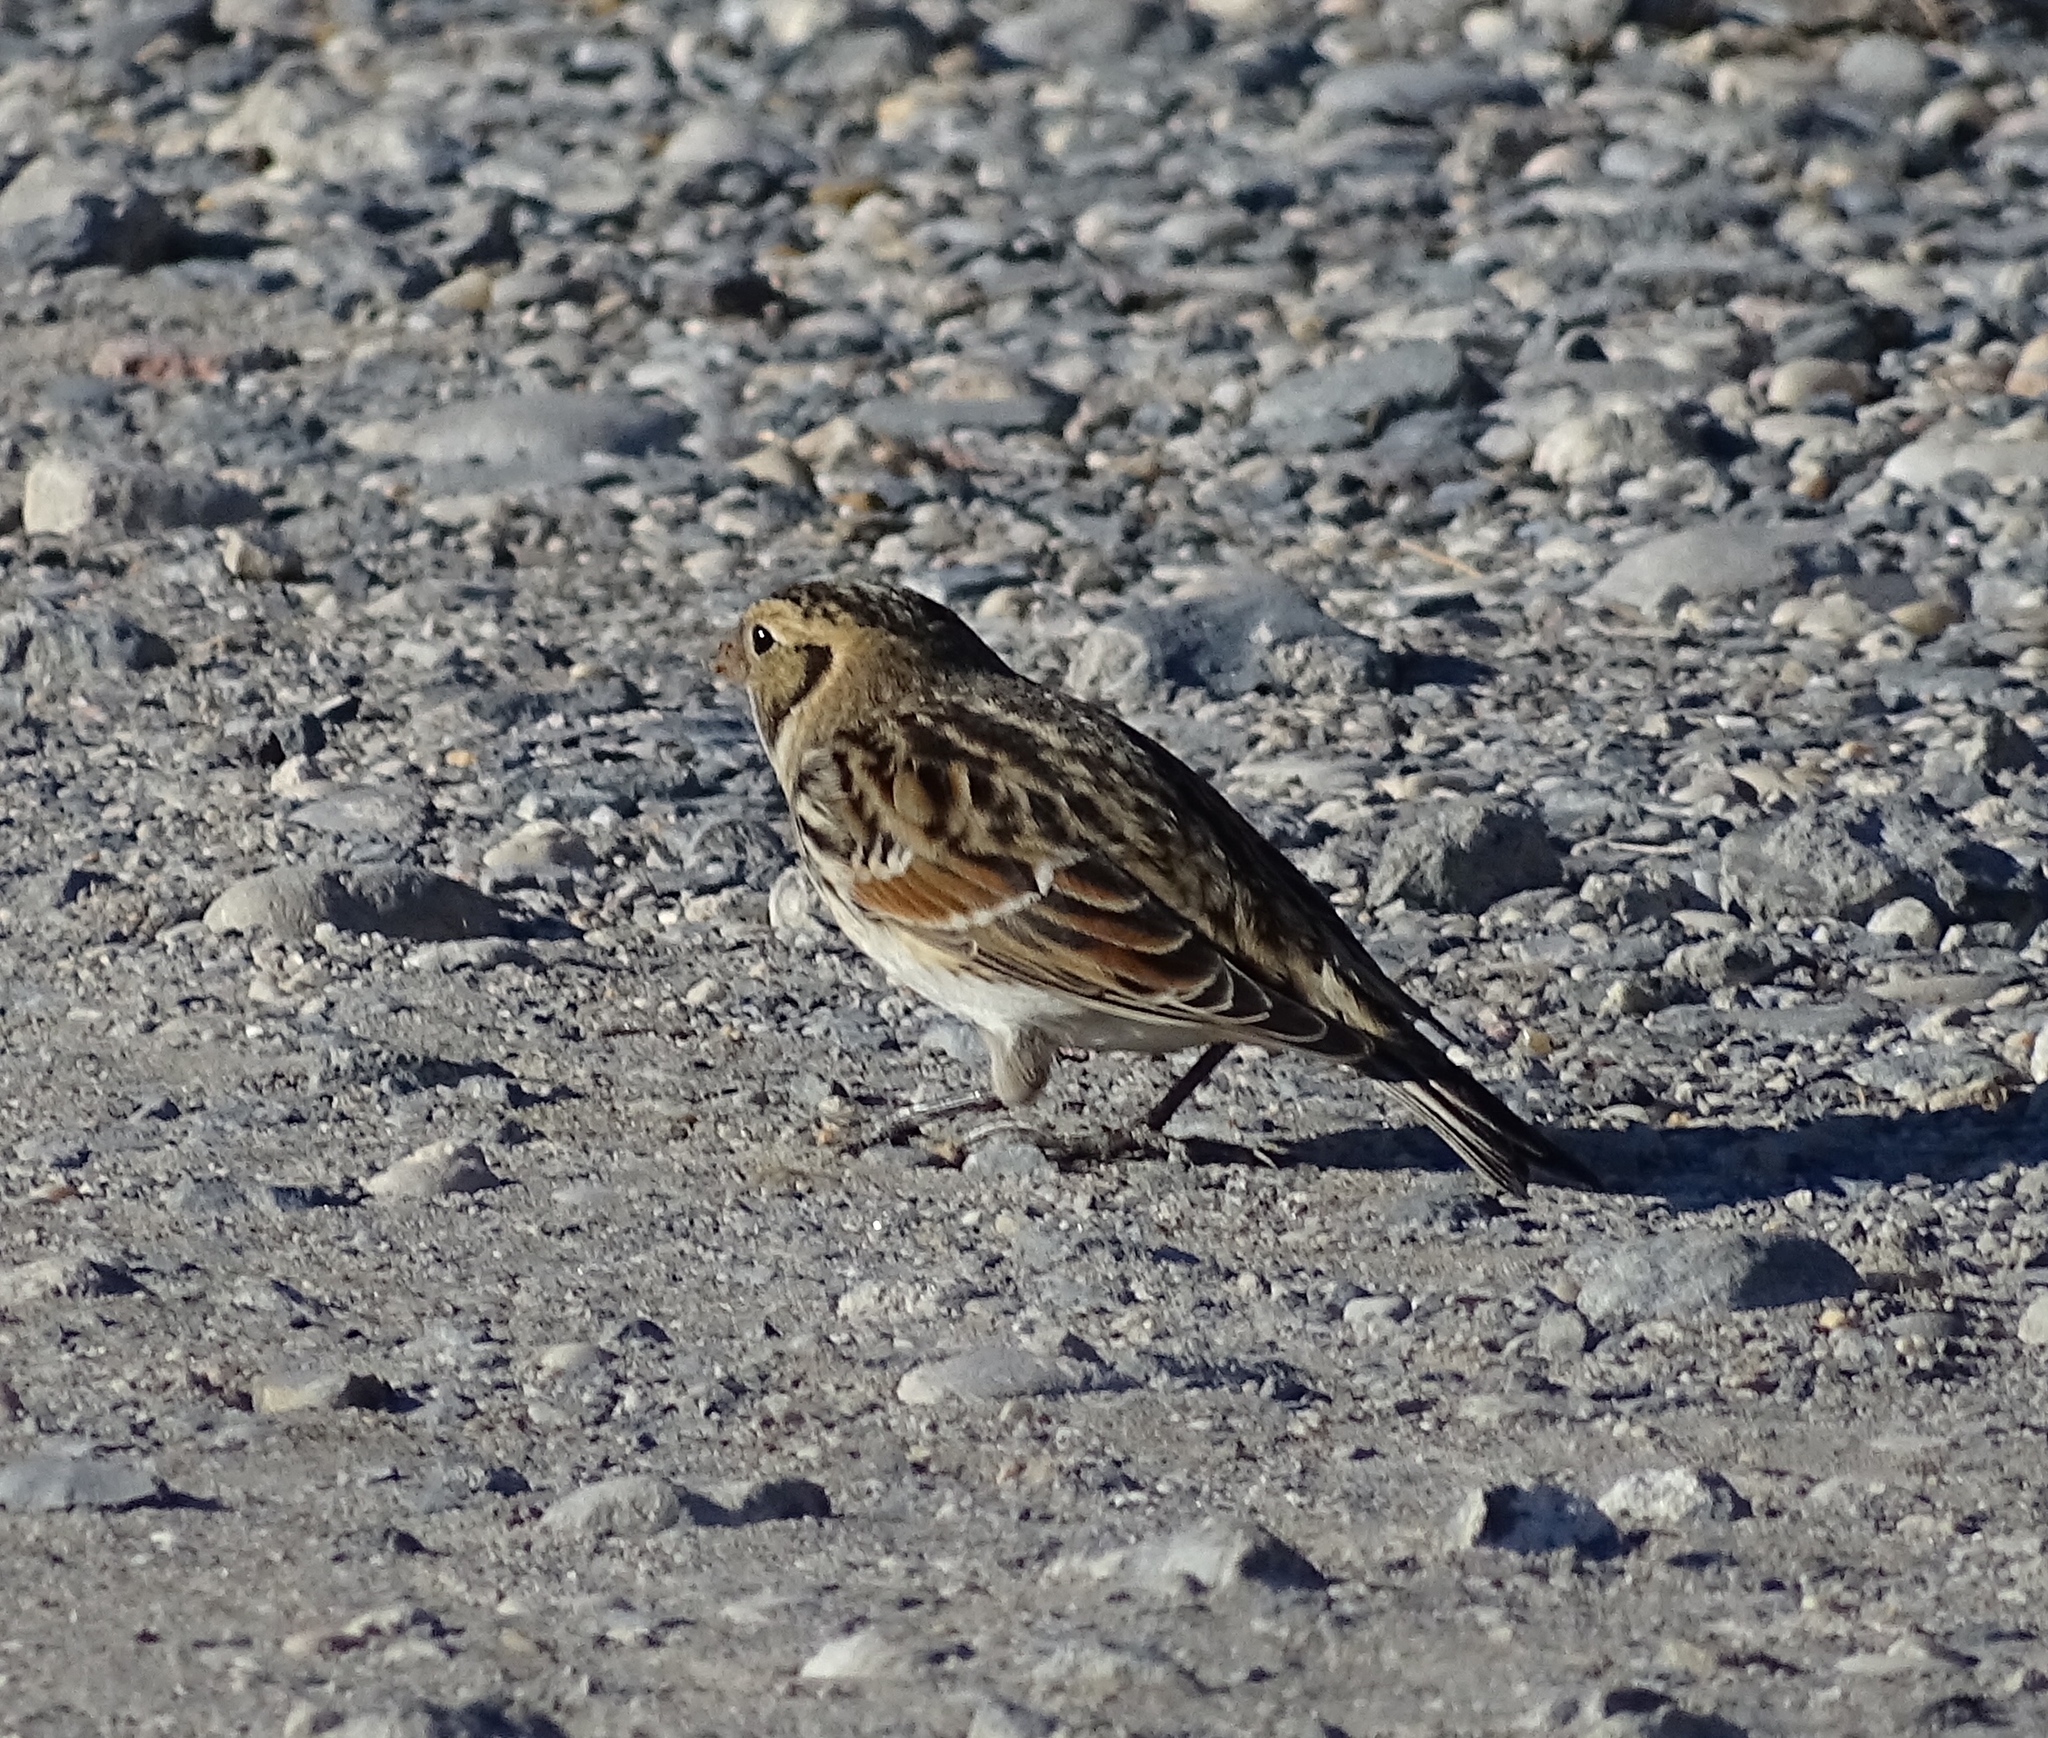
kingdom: Animalia
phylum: Chordata
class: Aves
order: Passeriformes
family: Calcariidae
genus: Calcarius
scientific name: Calcarius lapponicus
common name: Lapland longspur
